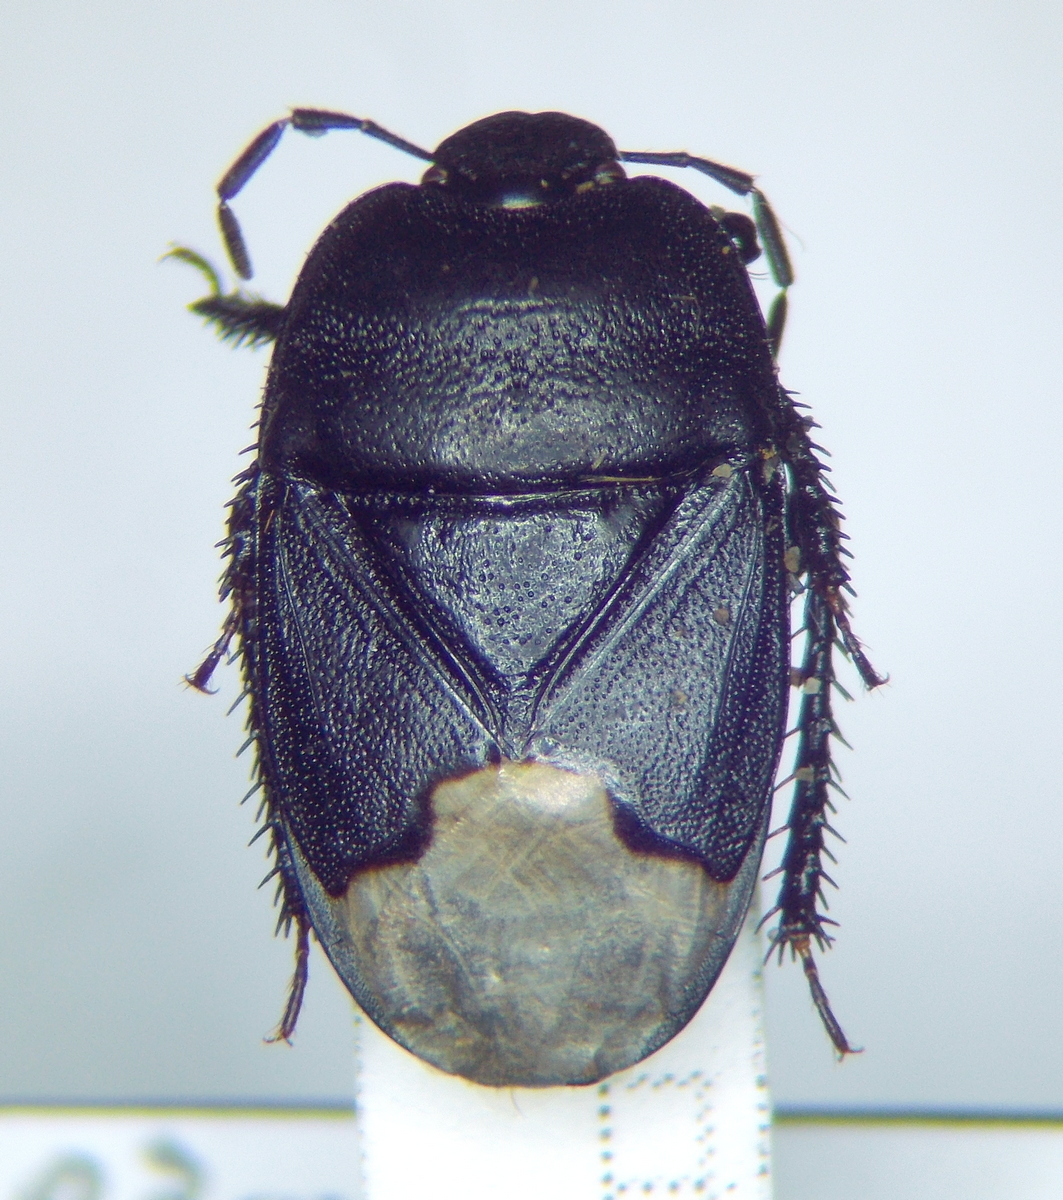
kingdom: Animalia
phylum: Arthropoda
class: Insecta
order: Hemiptera
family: Cydnidae
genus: Cydnus
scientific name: Cydnus aterrimus
